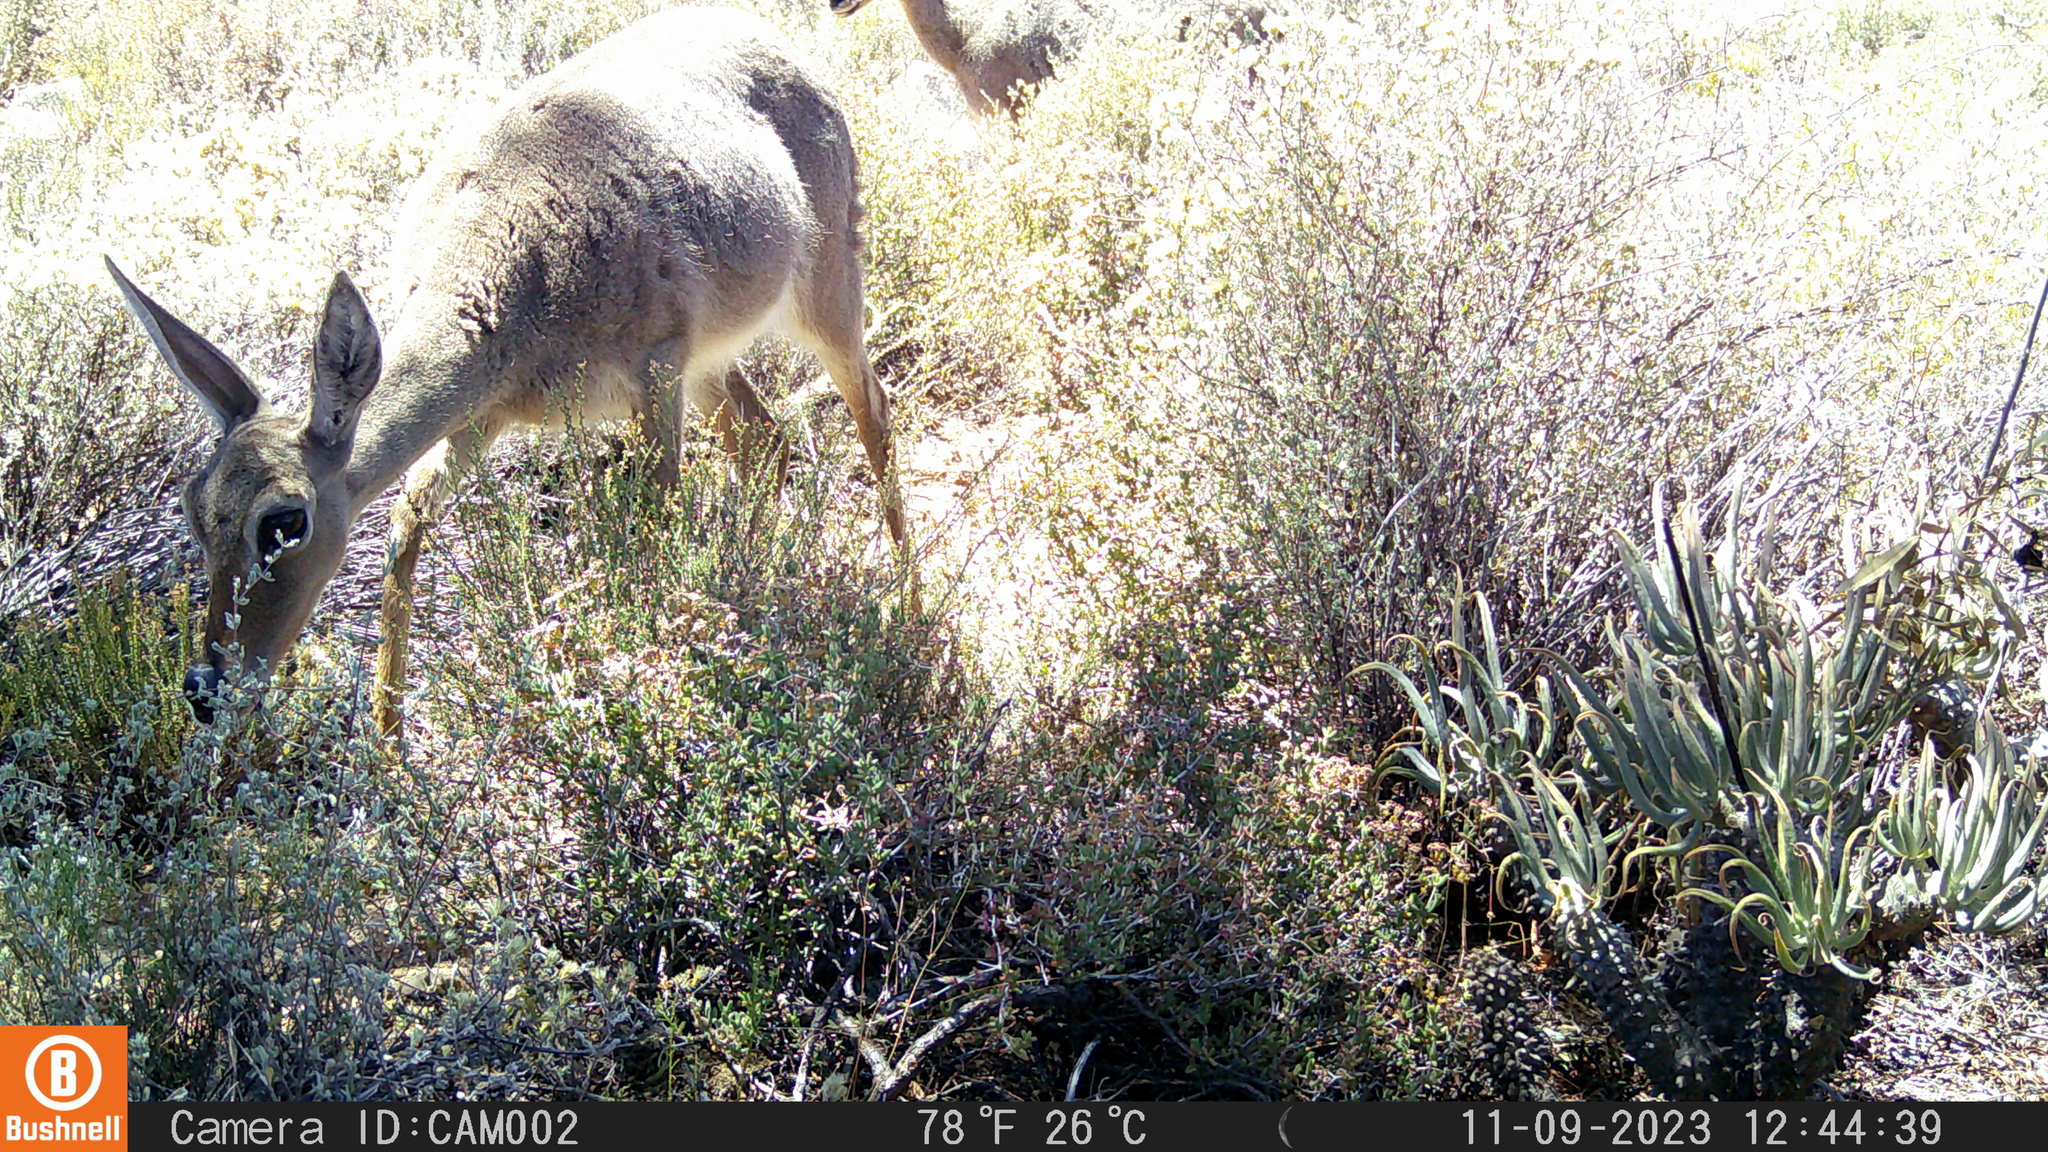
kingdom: Animalia
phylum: Chordata
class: Mammalia
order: Artiodactyla
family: Bovidae
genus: Pelea
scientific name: Pelea capreolus
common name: Common rhebok
